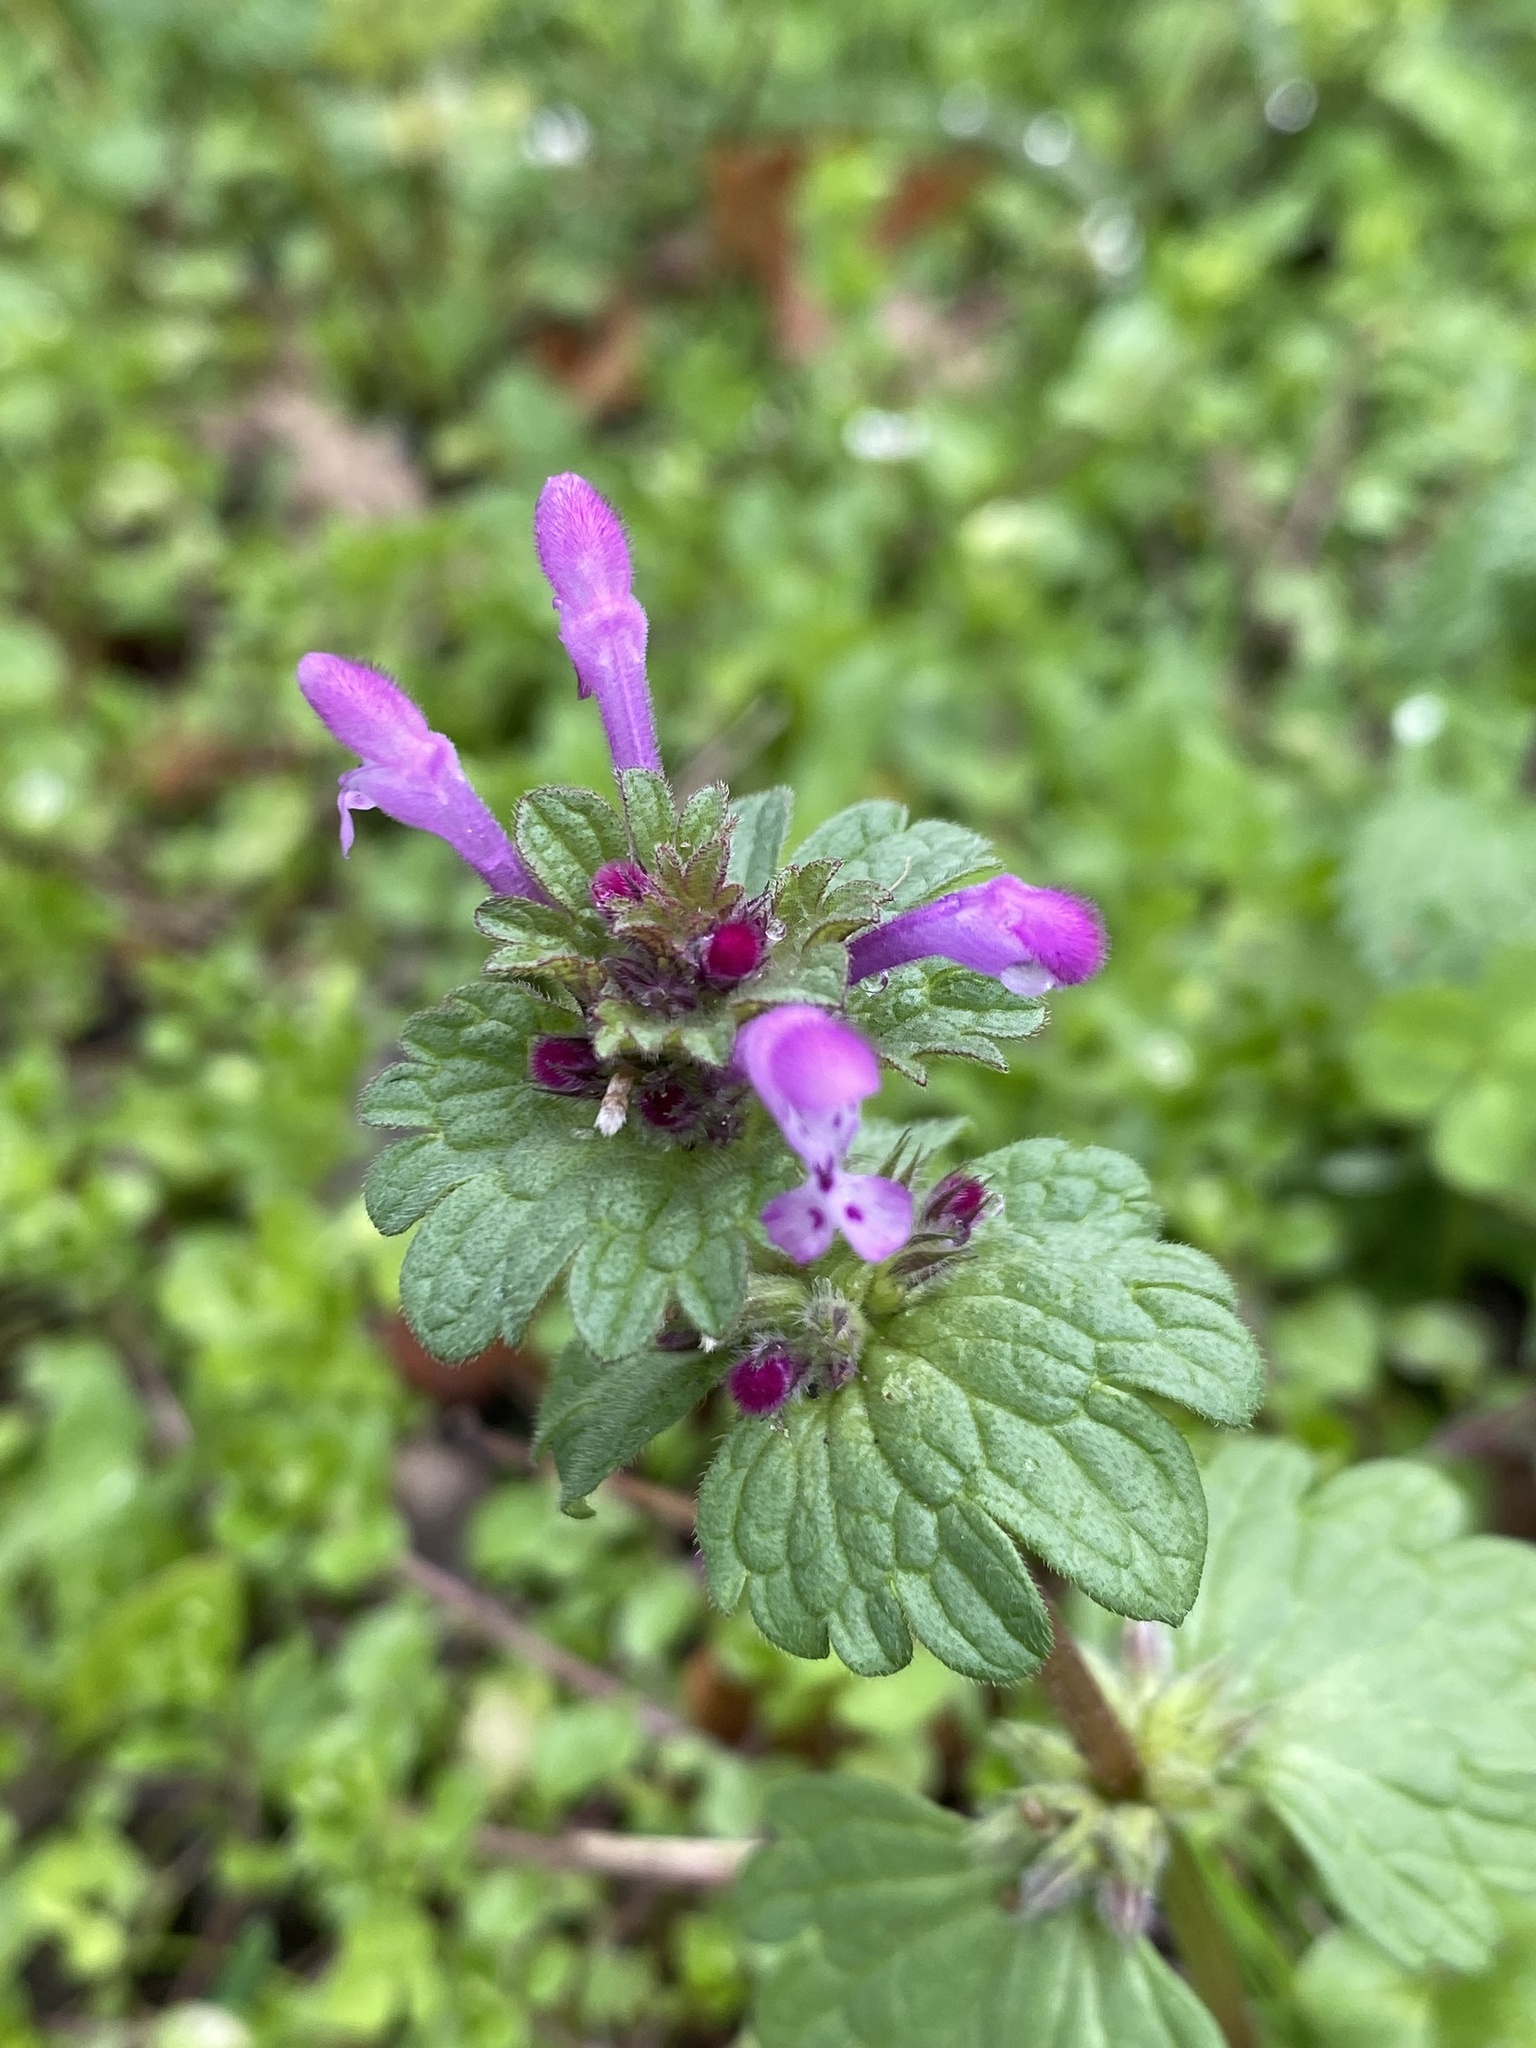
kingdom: Plantae
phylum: Tracheophyta
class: Magnoliopsida
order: Lamiales
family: Lamiaceae
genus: Lamium
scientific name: Lamium amplexicaule
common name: Henbit dead-nettle
